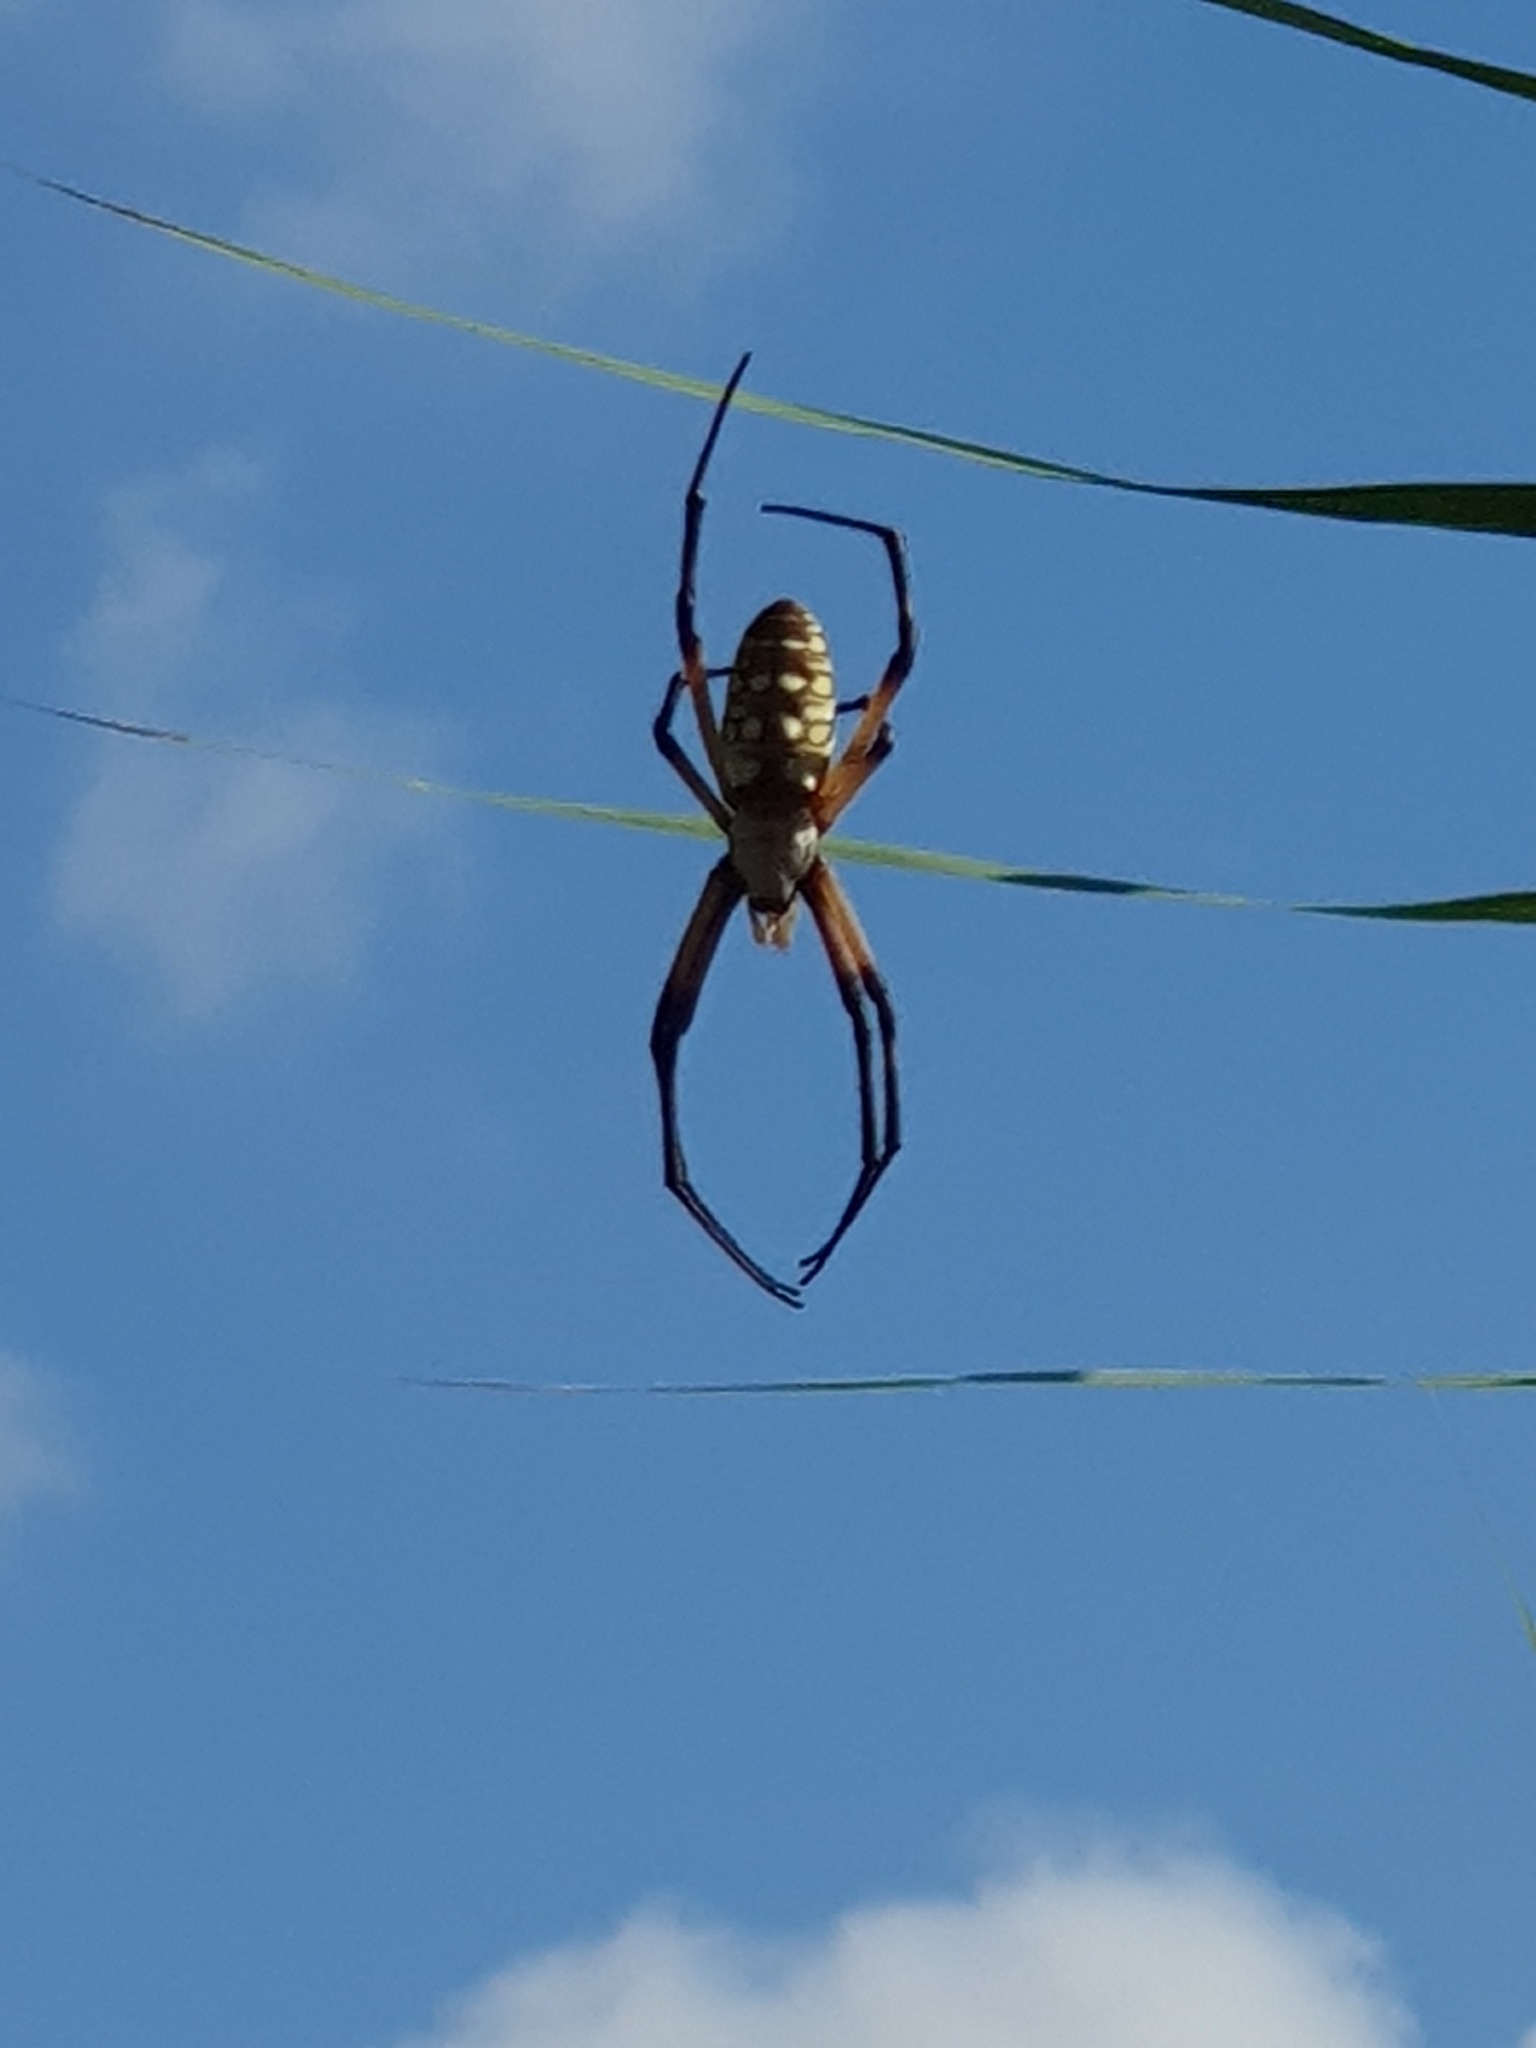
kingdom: Animalia
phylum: Arthropoda
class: Arachnida
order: Araneae
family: Araneidae
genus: Argiope
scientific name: Argiope aurantia
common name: Orb weavers
